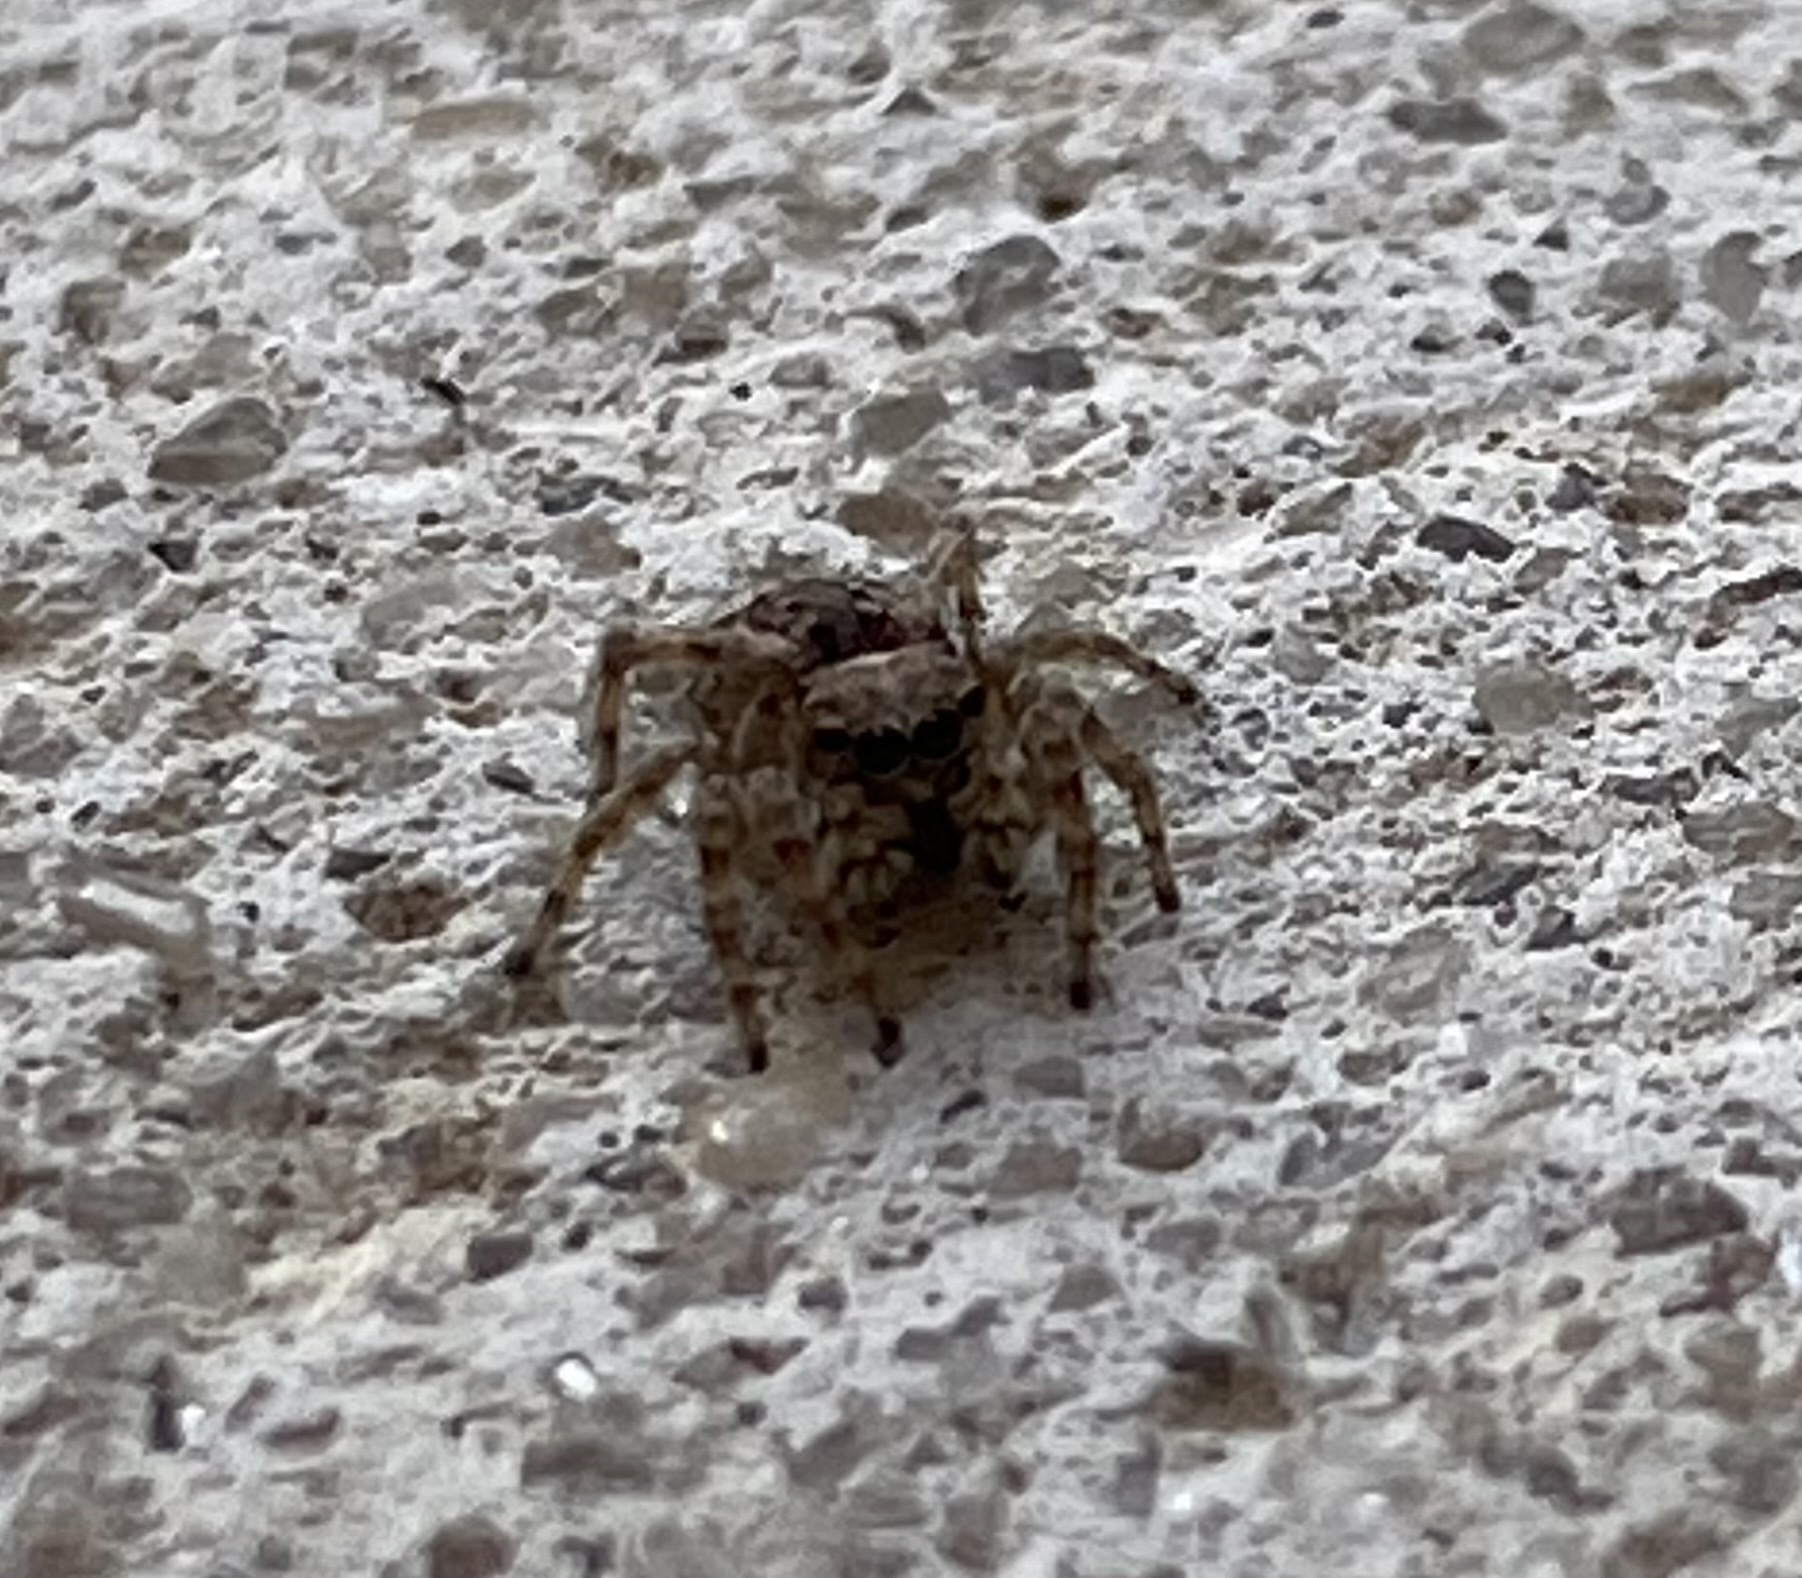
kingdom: Animalia
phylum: Arthropoda
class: Arachnida
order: Araneae
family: Salticidae
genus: Attulus
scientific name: Attulus fasciger
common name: Asiatic wall jumping spider
